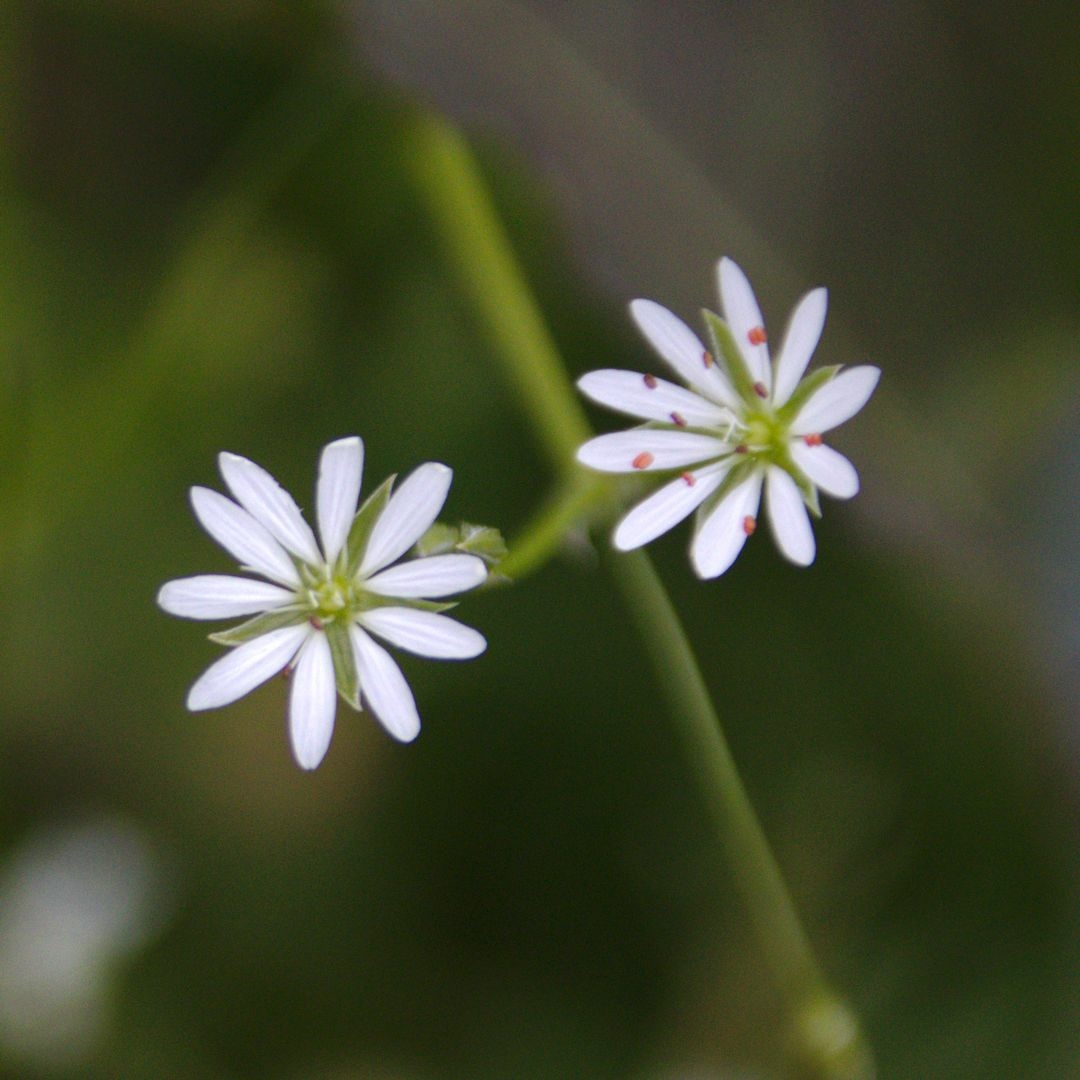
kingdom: Plantae
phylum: Tracheophyta
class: Magnoliopsida
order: Caryophyllales
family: Caryophyllaceae
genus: Stellaria
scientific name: Stellaria
